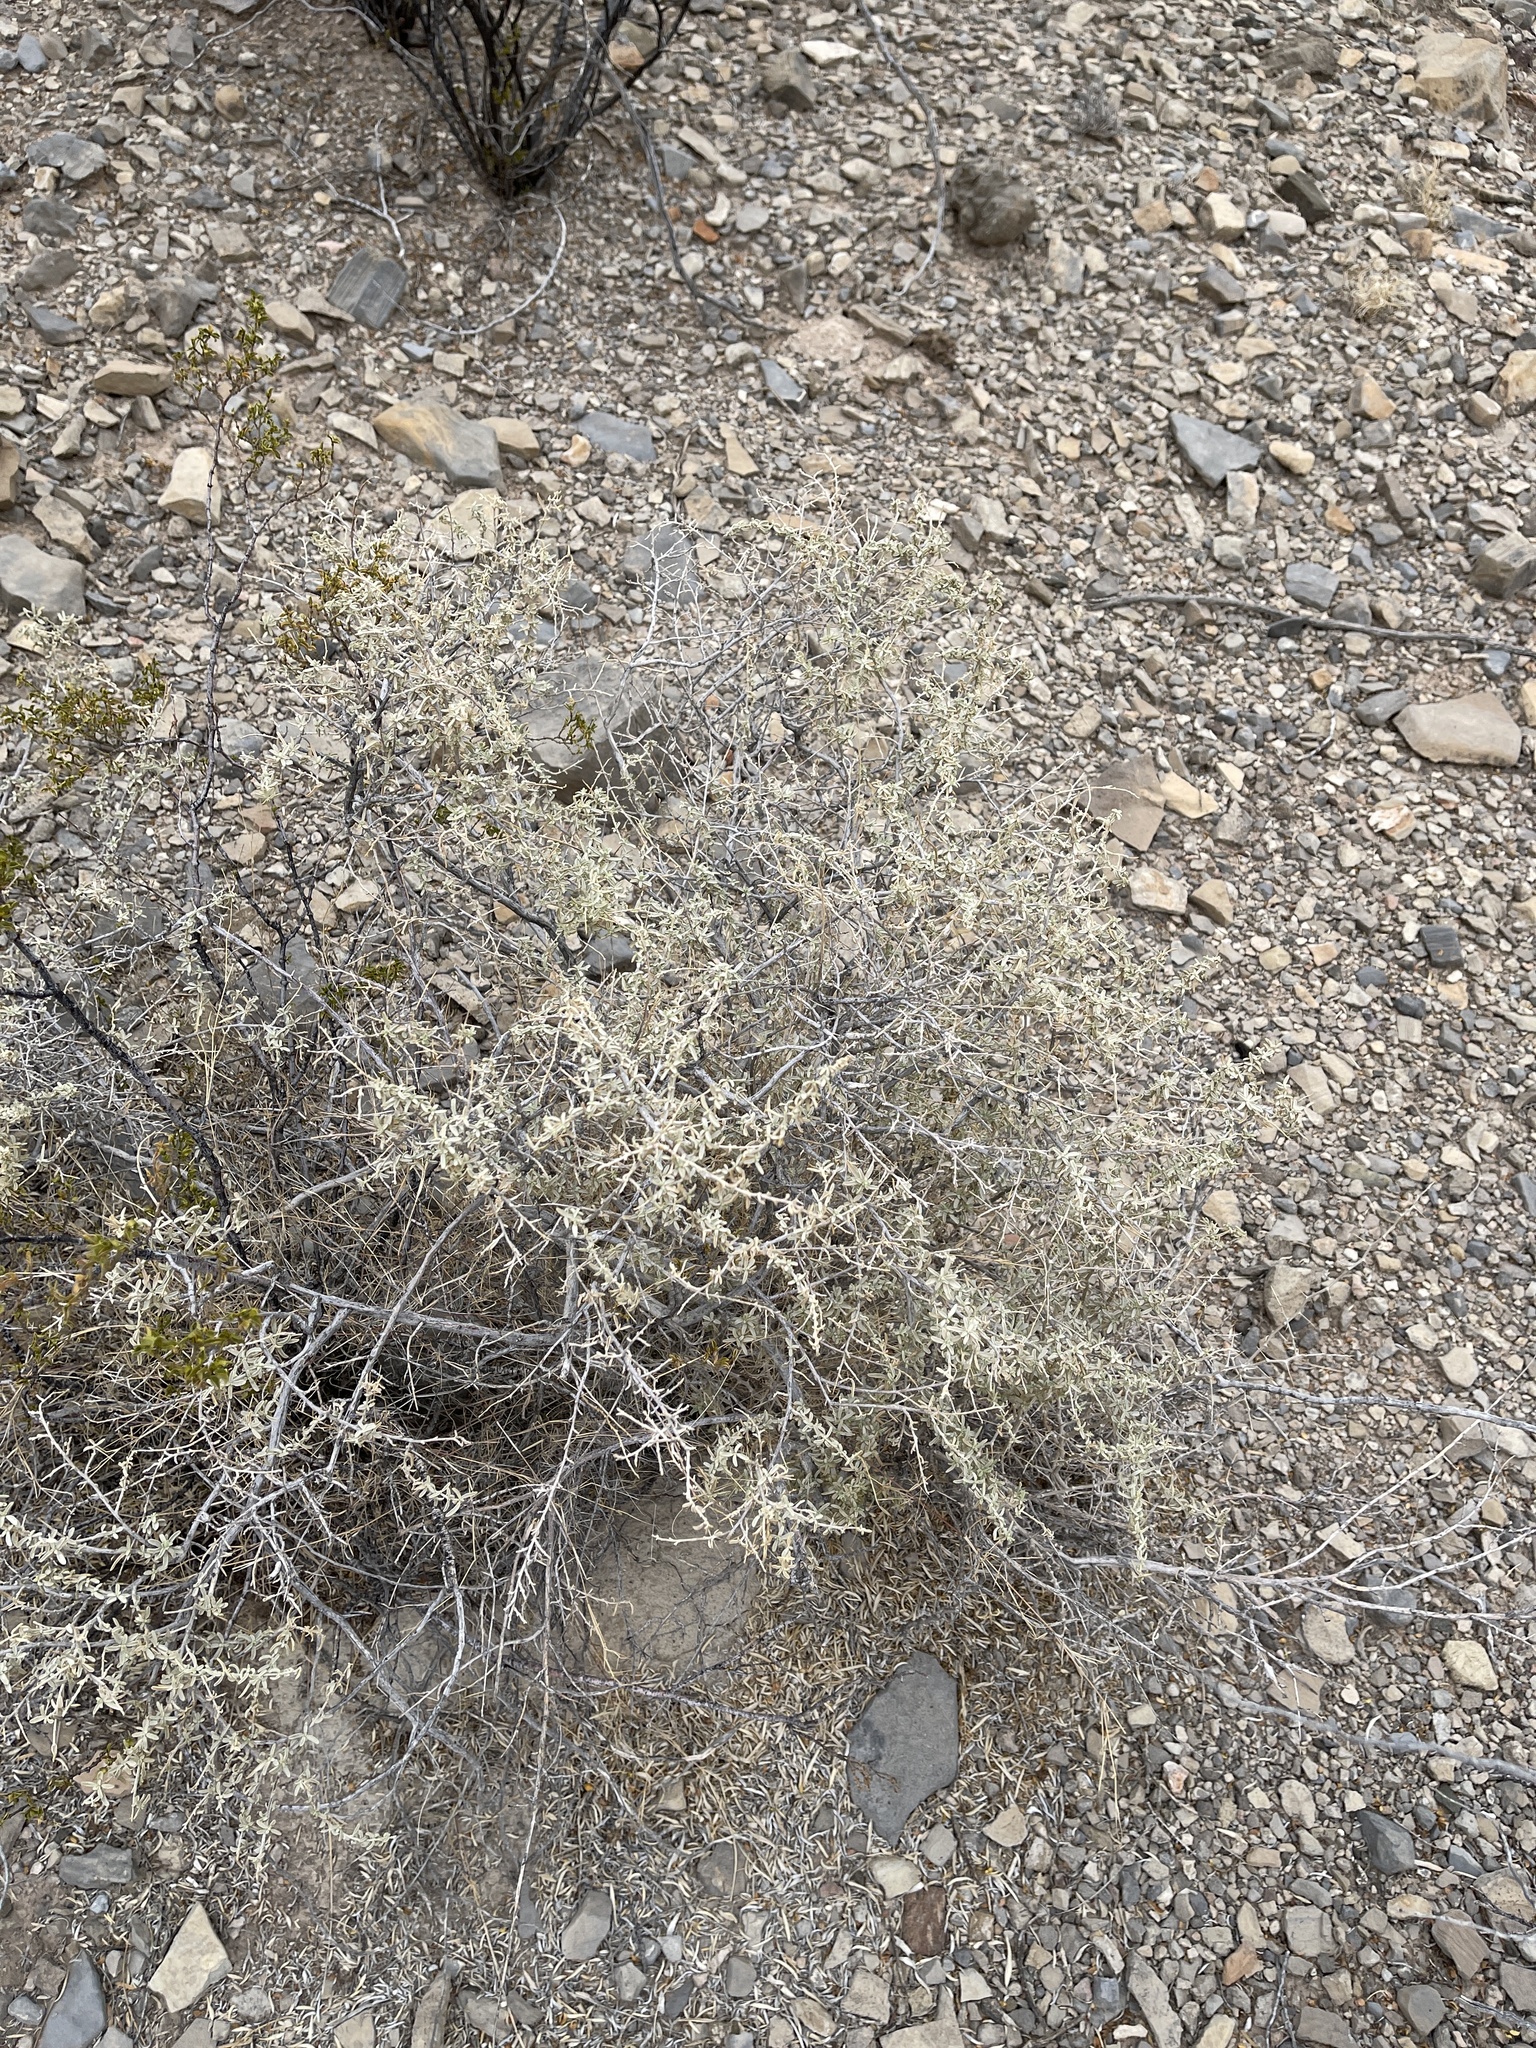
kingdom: Plantae
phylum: Tracheophyta
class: Magnoliopsida
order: Caryophyllales
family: Amaranthaceae
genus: Atriplex
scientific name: Atriplex canescens
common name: Four-wing saltbush
